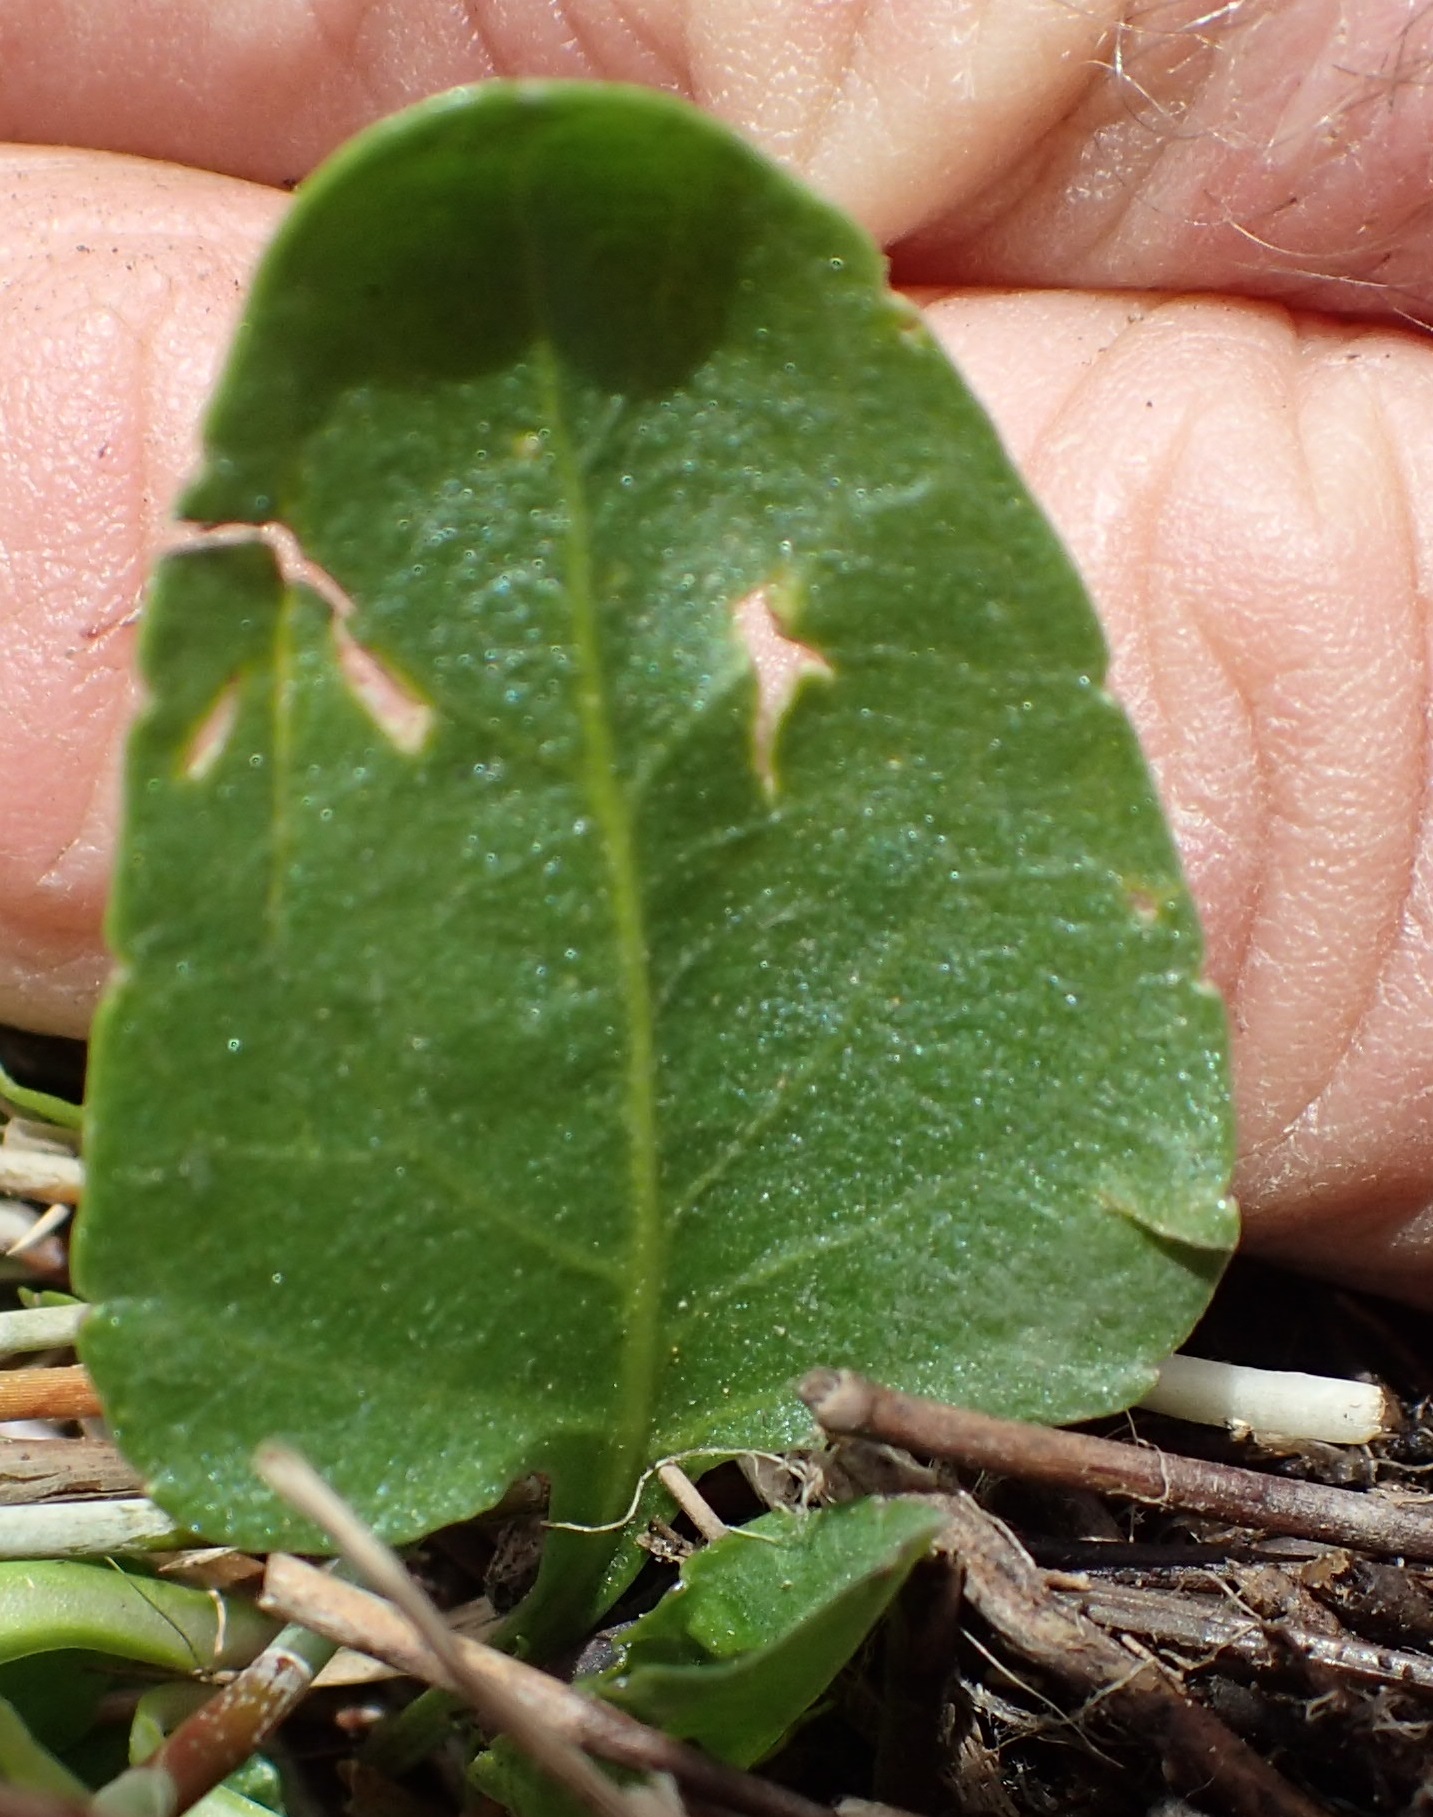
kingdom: Plantae
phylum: Tracheophyta
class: Magnoliopsida
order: Malpighiales
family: Violaceae
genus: Viola
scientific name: Viola betonicifolia
